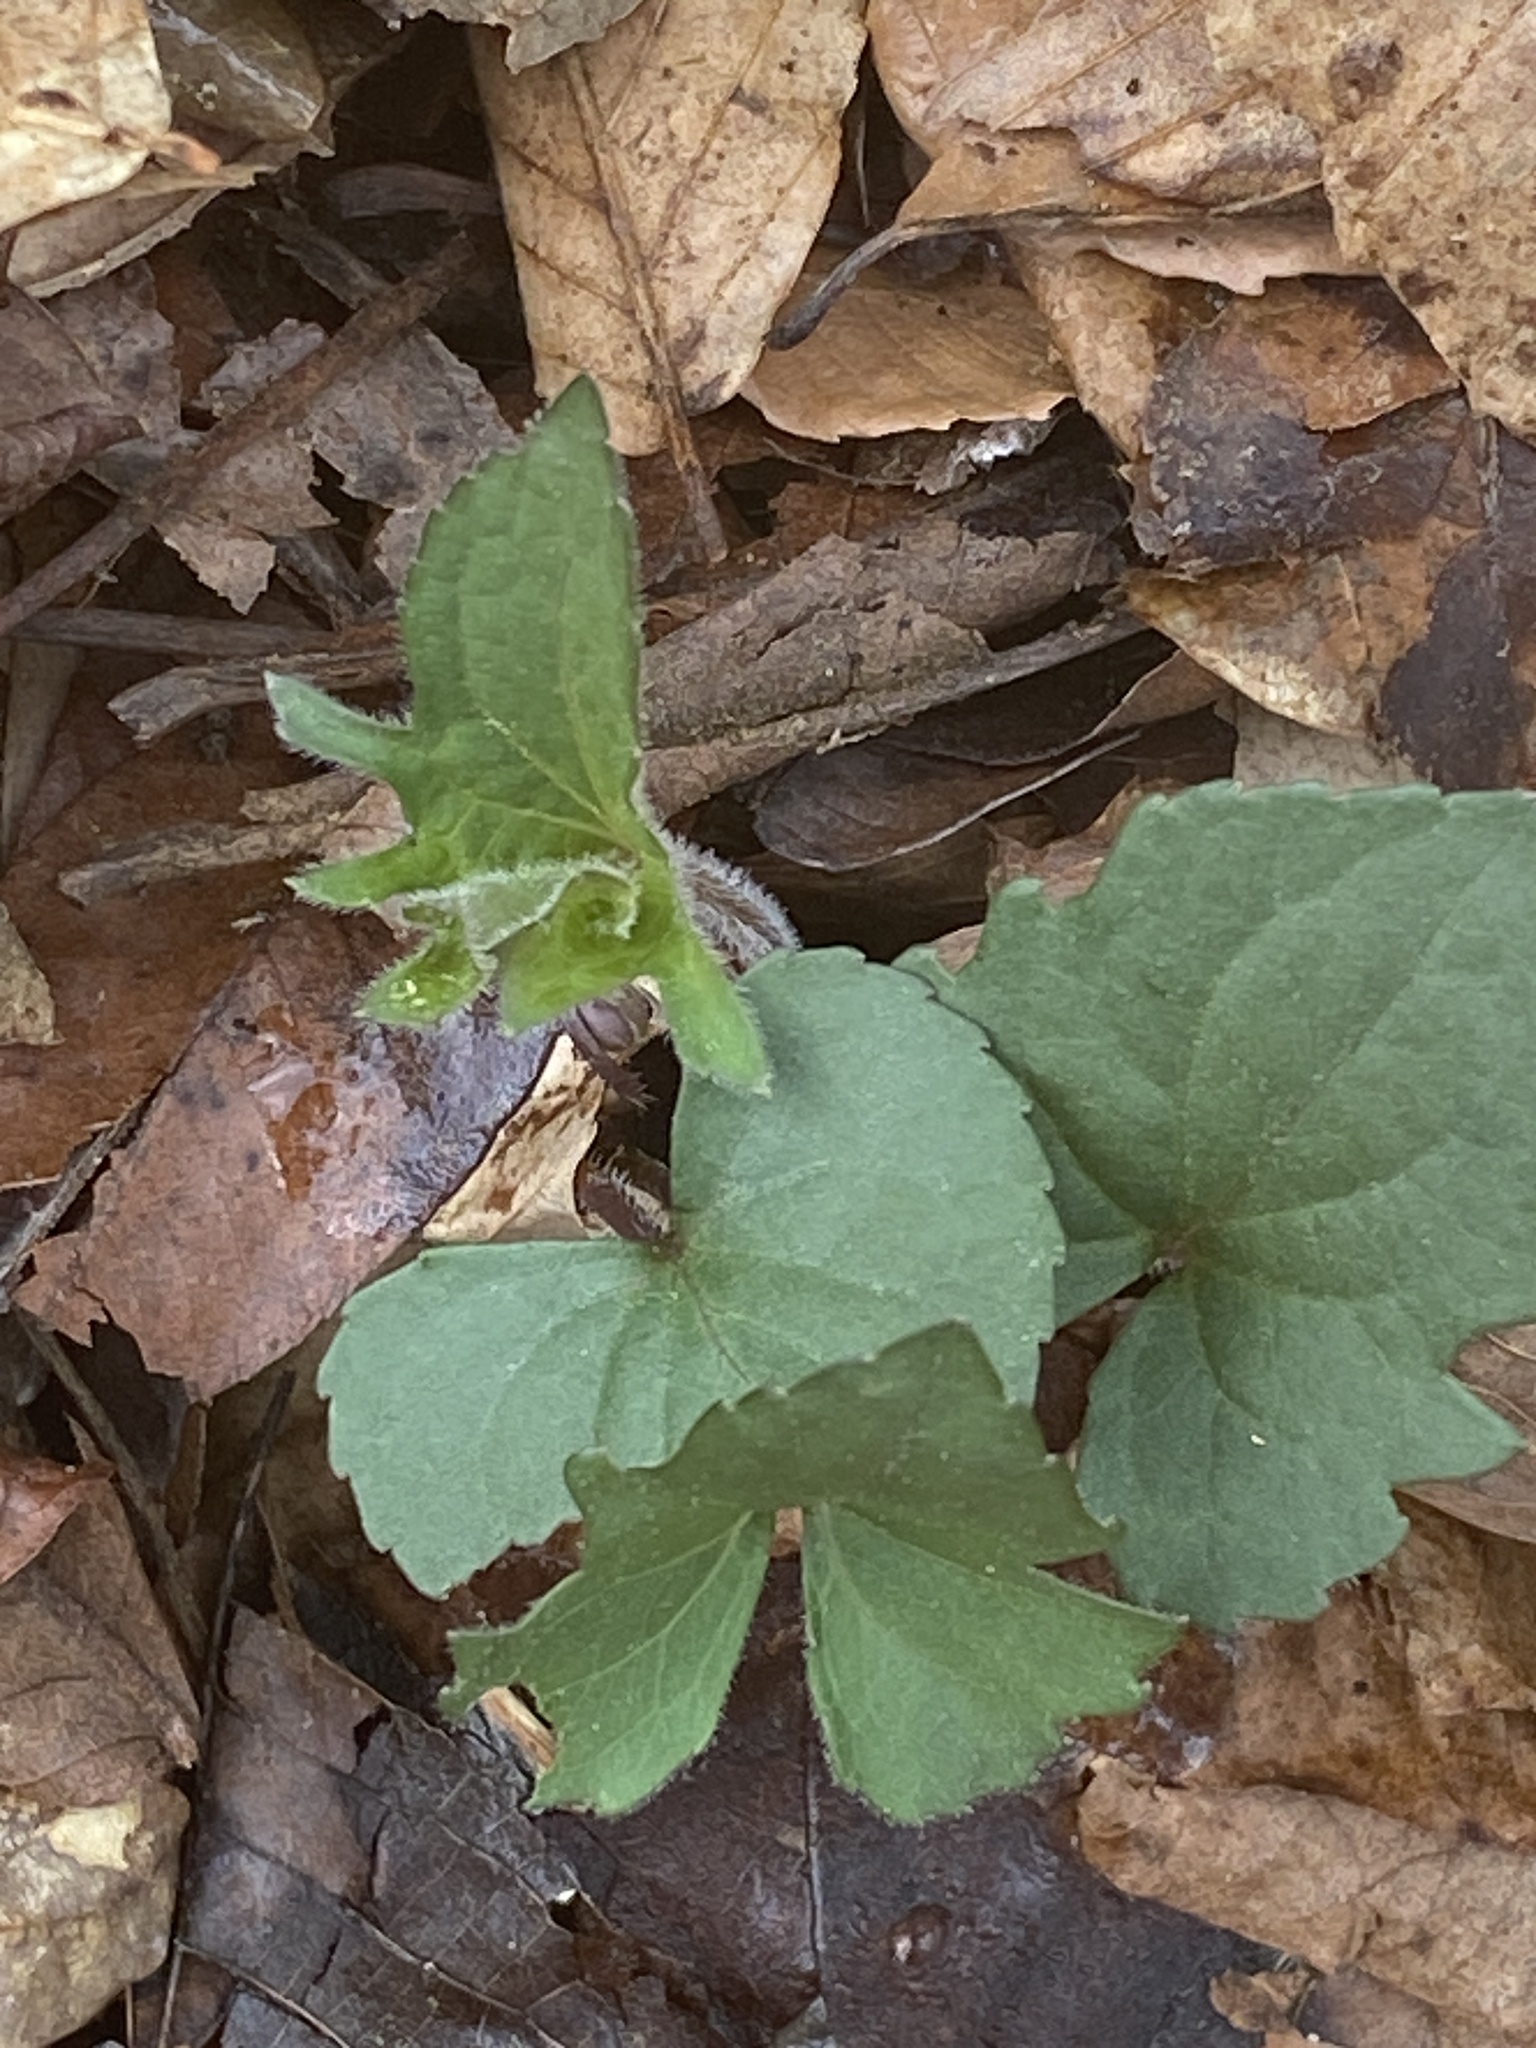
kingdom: Plantae
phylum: Tracheophyta
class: Magnoliopsida
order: Malpighiales
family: Violaceae
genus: Viola
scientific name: Viola palmata
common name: Early blue violet
